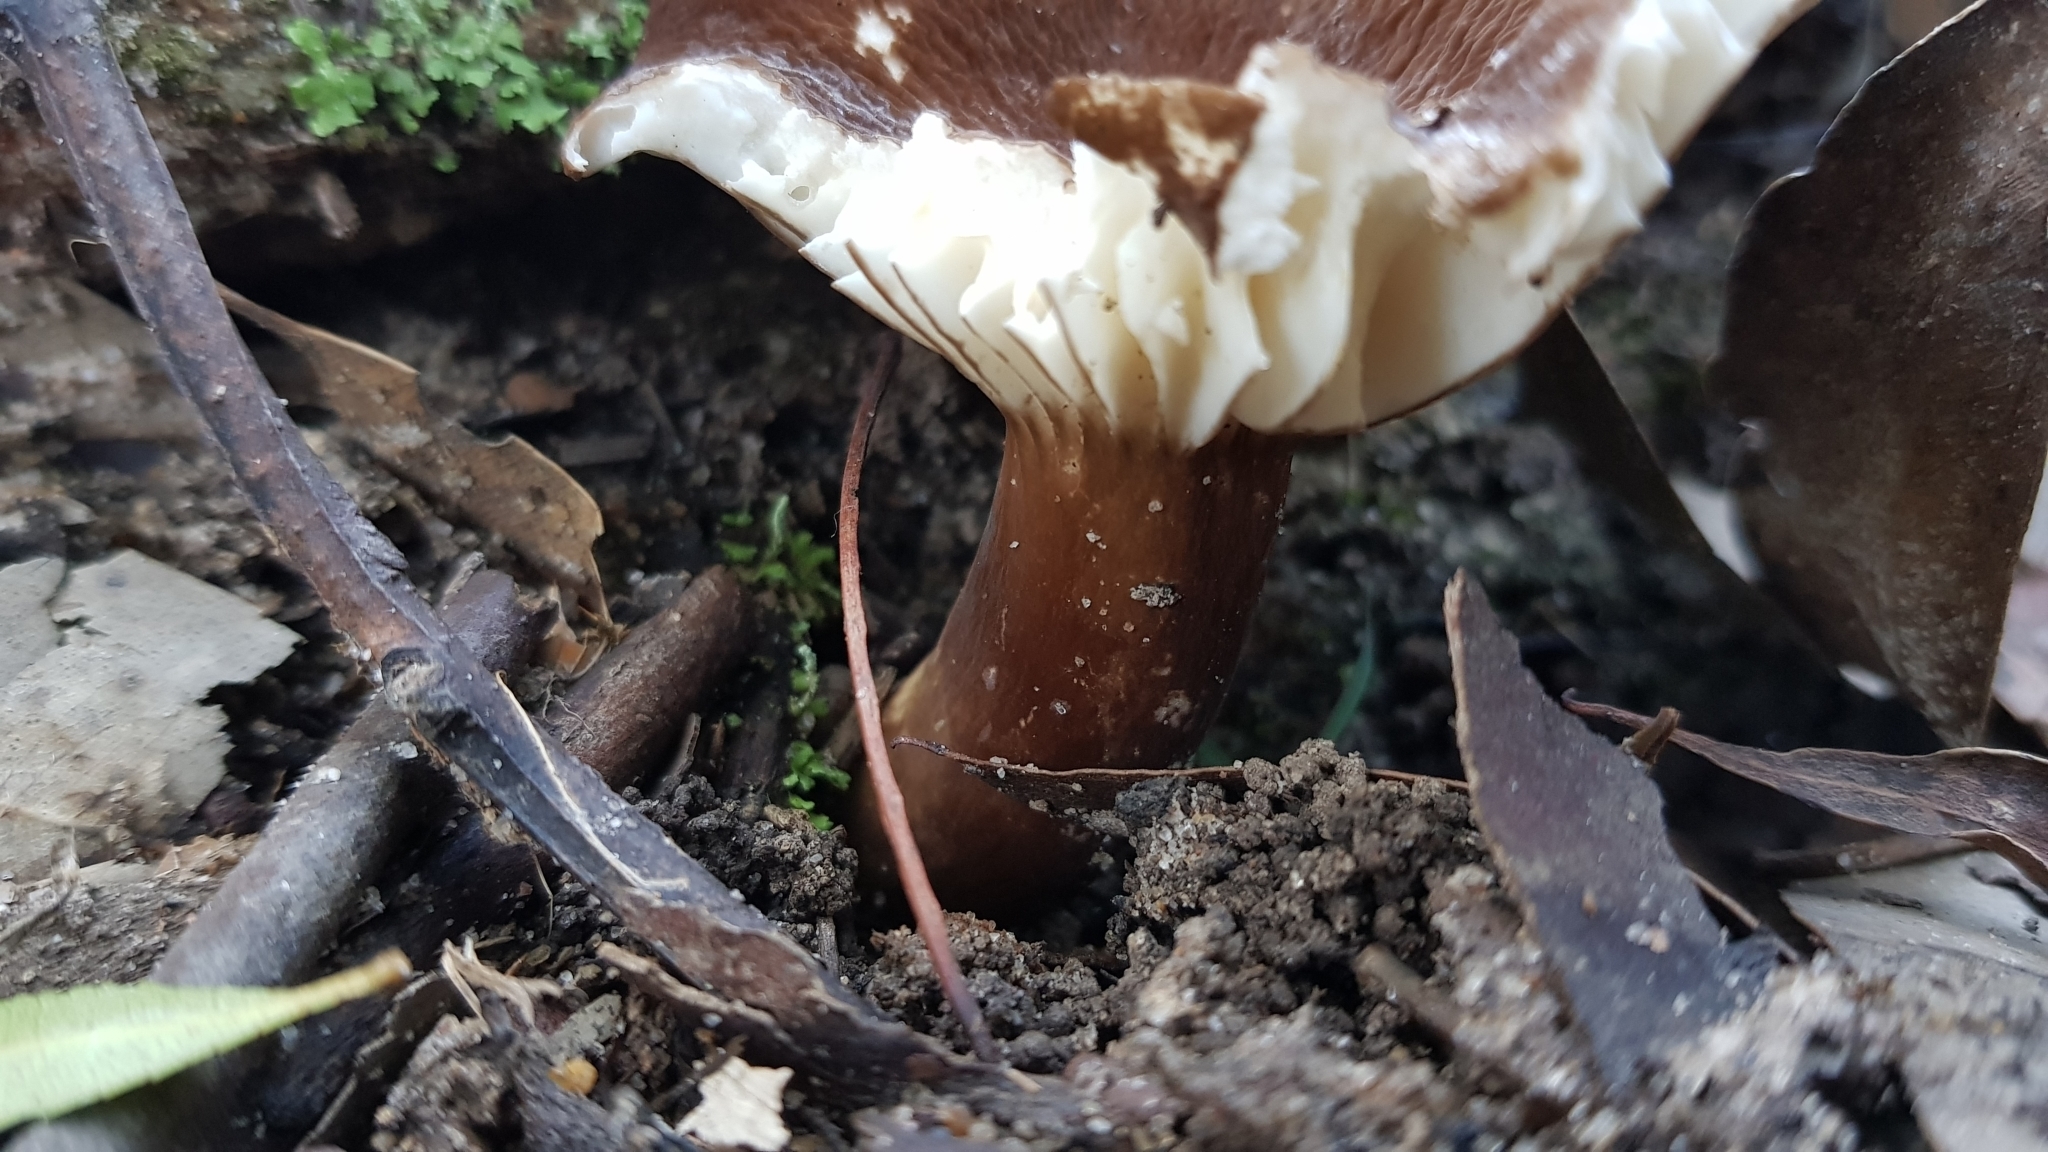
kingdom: Fungi
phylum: Basidiomycota
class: Agaricomycetes
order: Russulales
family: Russulaceae
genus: Lactifluus
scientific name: Lactifluus sepiaceus
